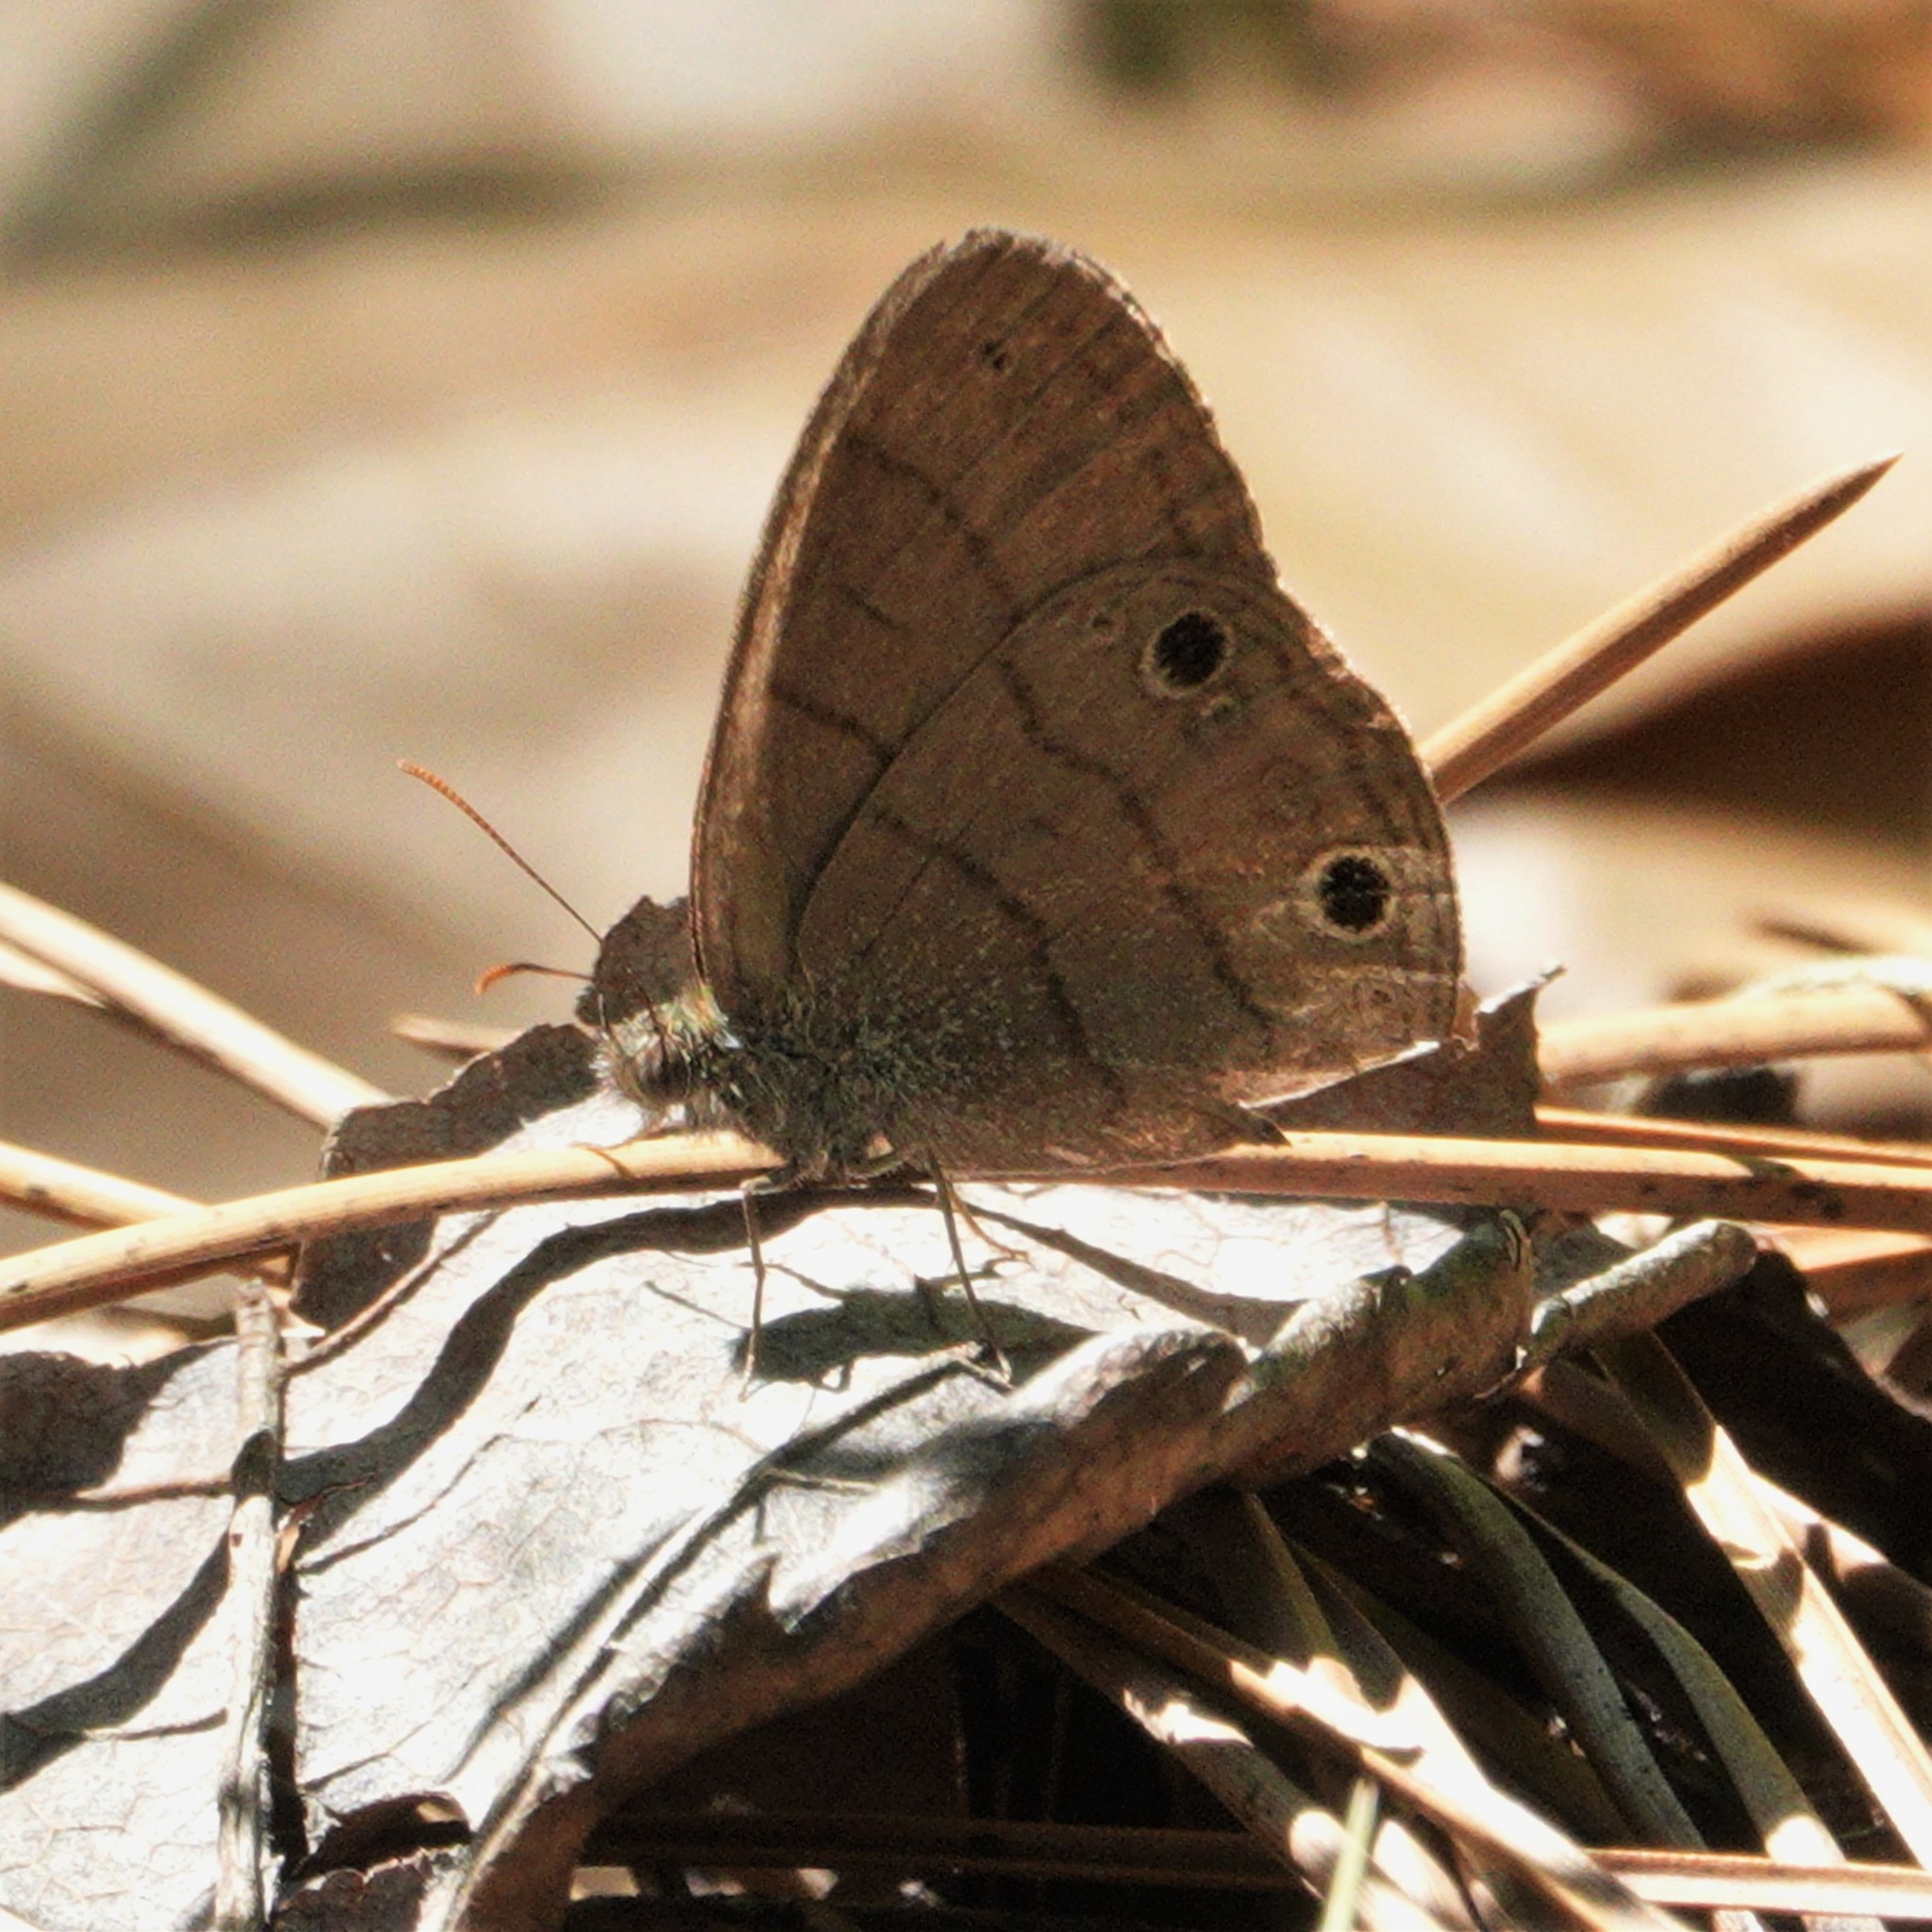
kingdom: Animalia
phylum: Arthropoda
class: Insecta
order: Lepidoptera
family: Nymphalidae
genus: Hermeuptychia
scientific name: Hermeuptychia hermes
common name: Hermes satyr
